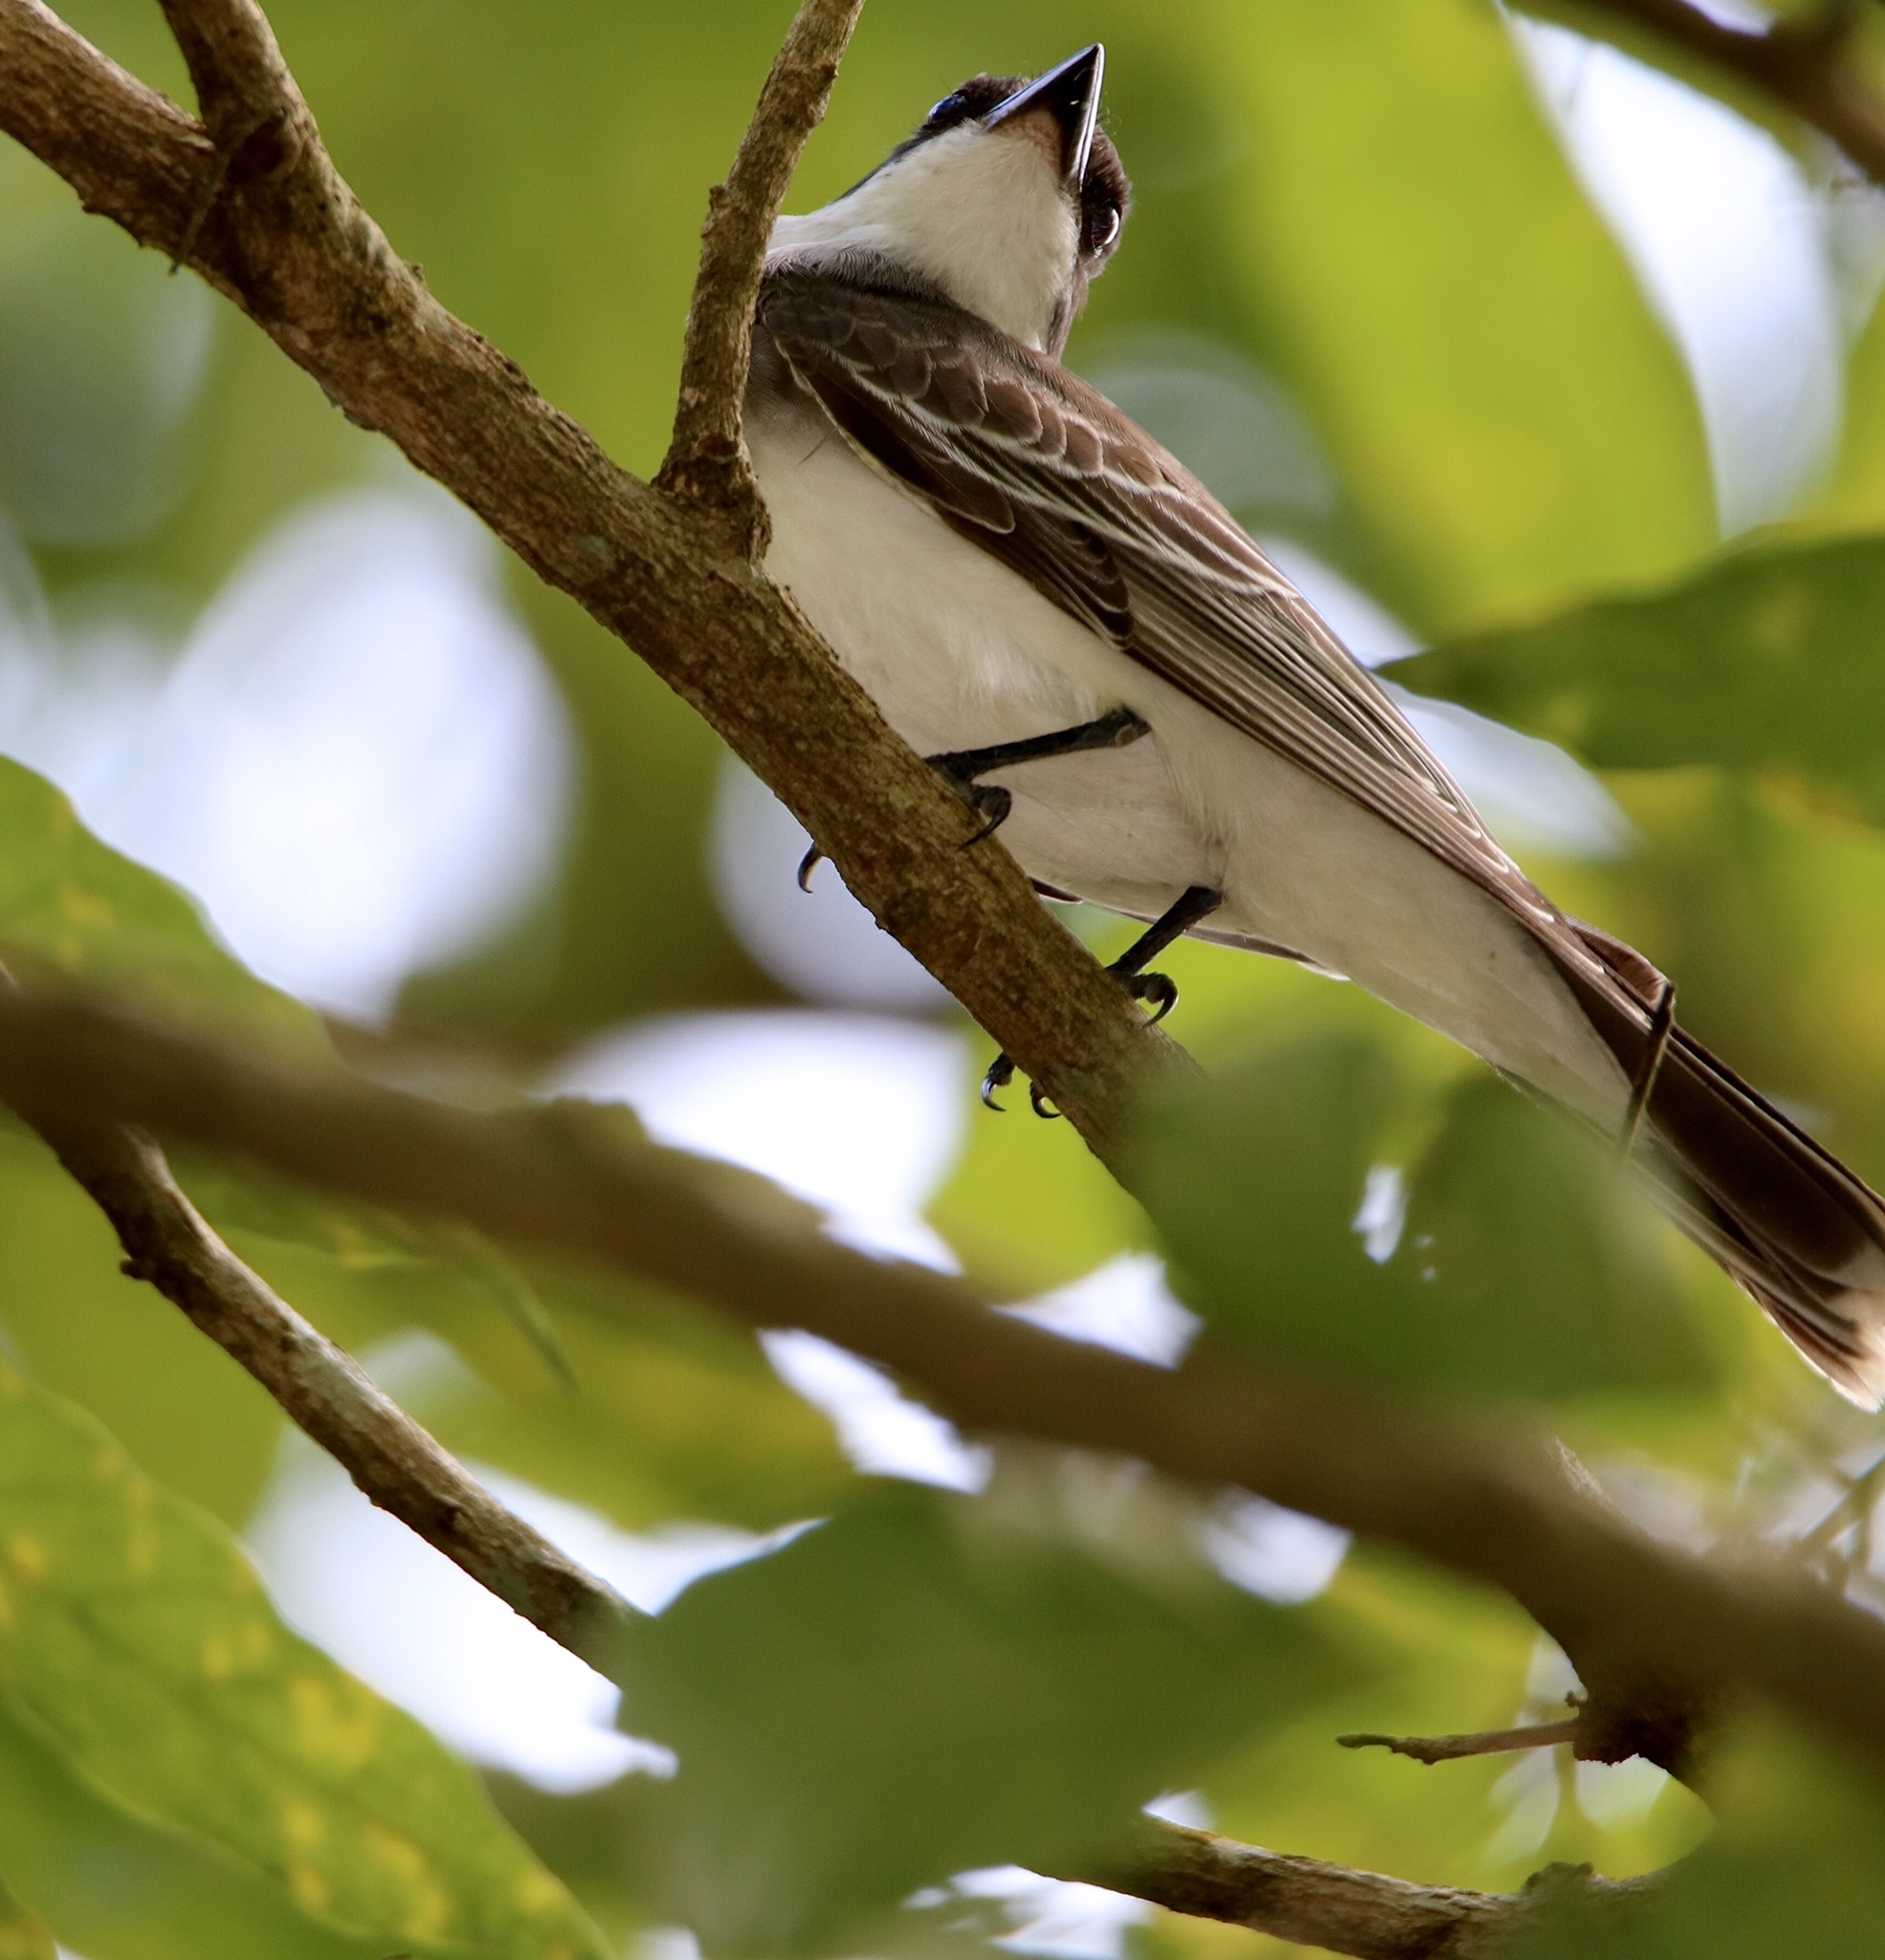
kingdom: Animalia
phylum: Chordata
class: Aves
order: Passeriformes
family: Tyrannidae
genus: Tyrannus
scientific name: Tyrannus tyrannus
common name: Eastern kingbird
